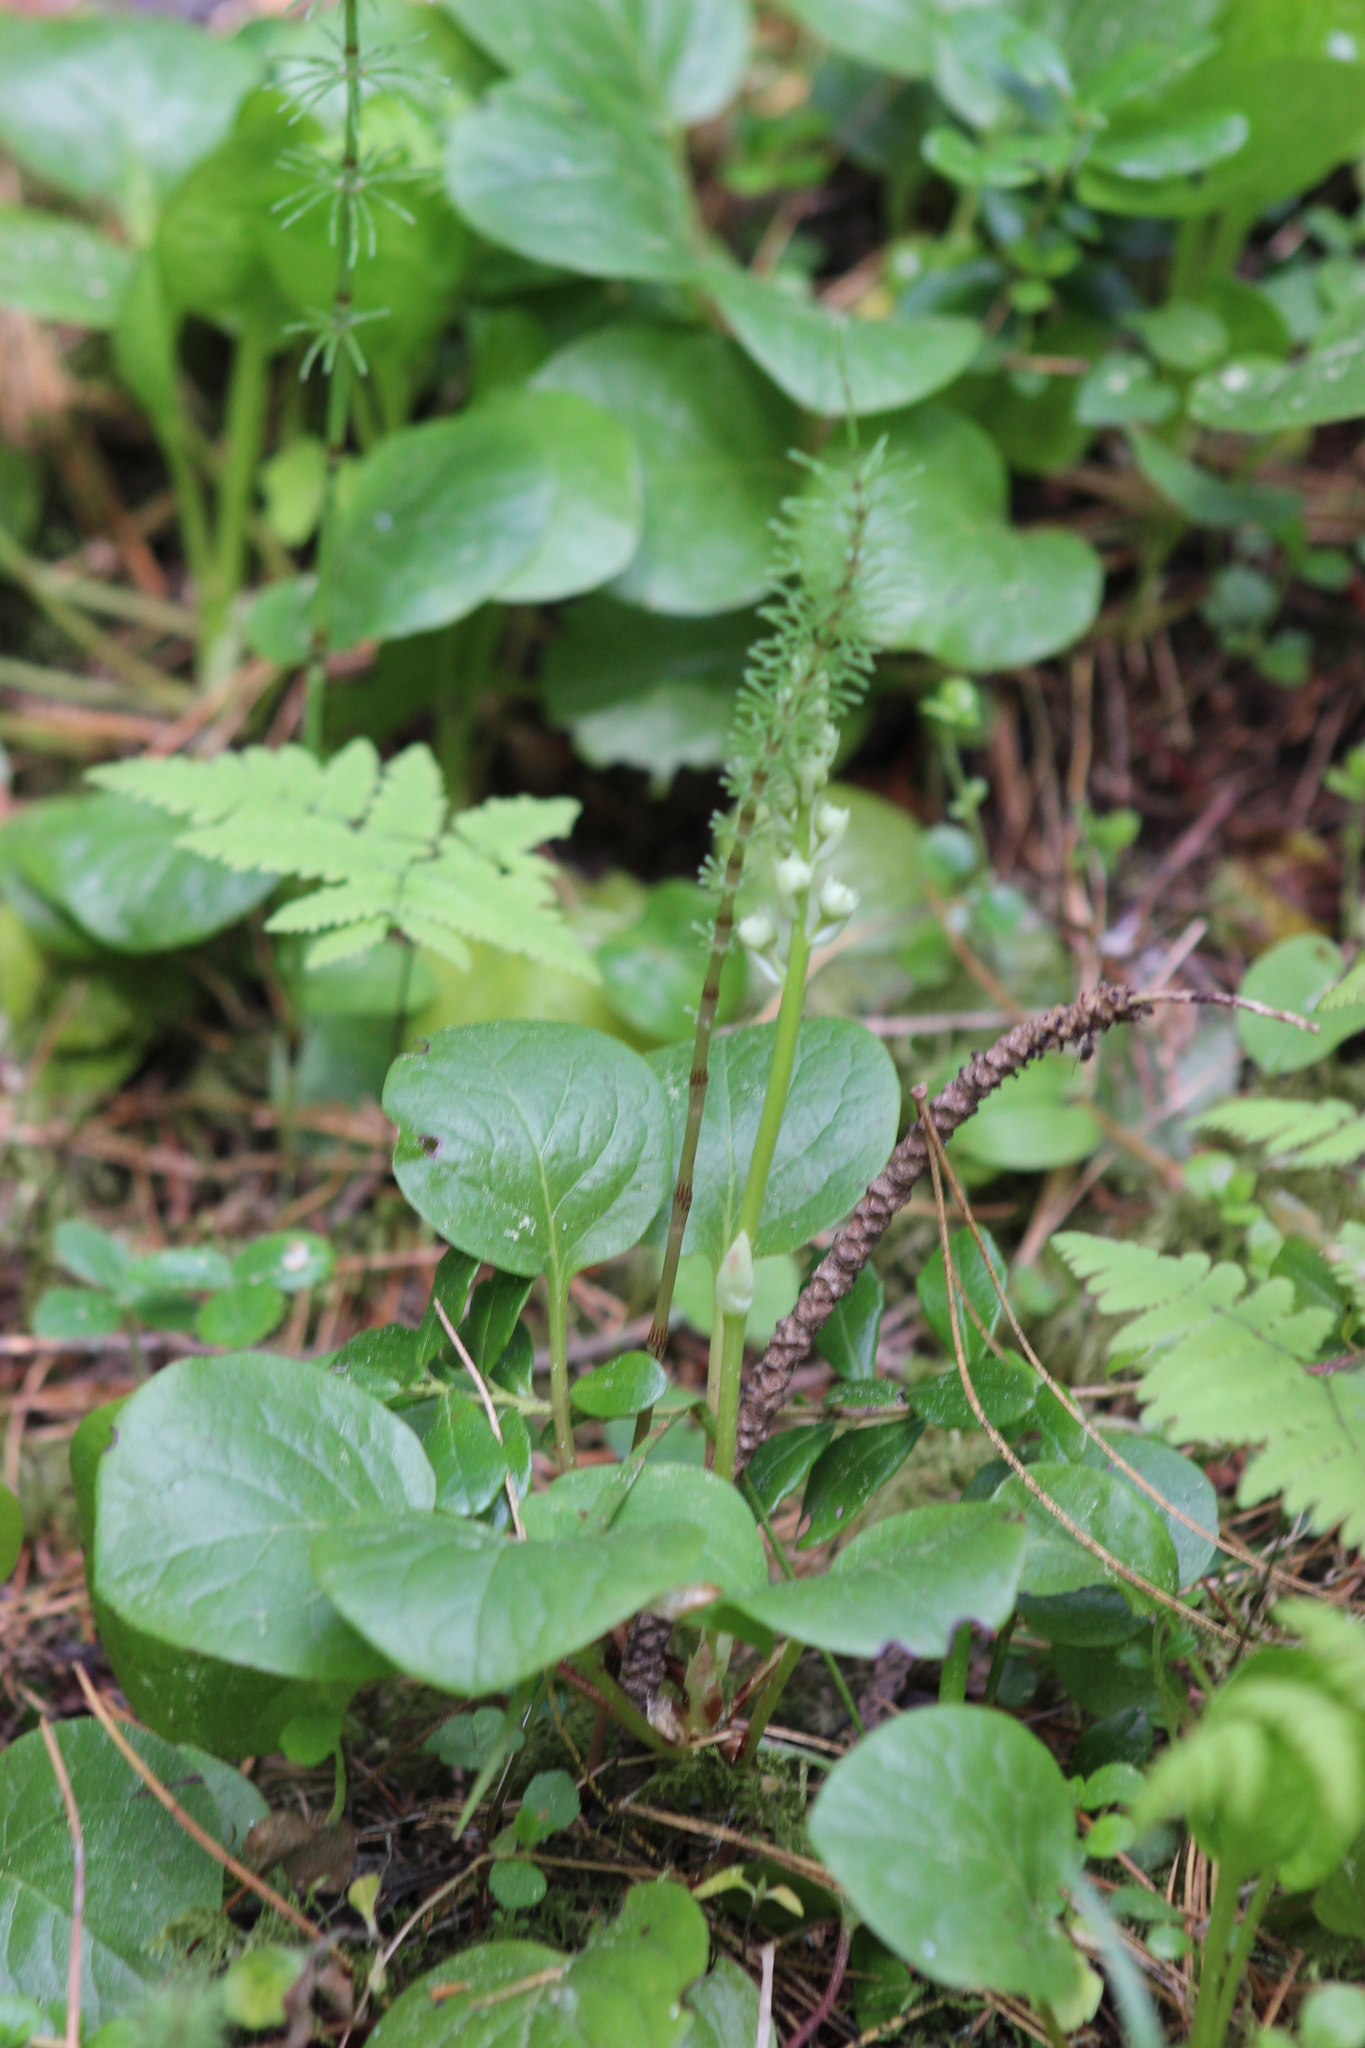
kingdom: Plantae
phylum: Tracheophyta
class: Magnoliopsida
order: Ericales
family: Ericaceae
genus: Pyrola
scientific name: Pyrola minor
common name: Common wintergreen
